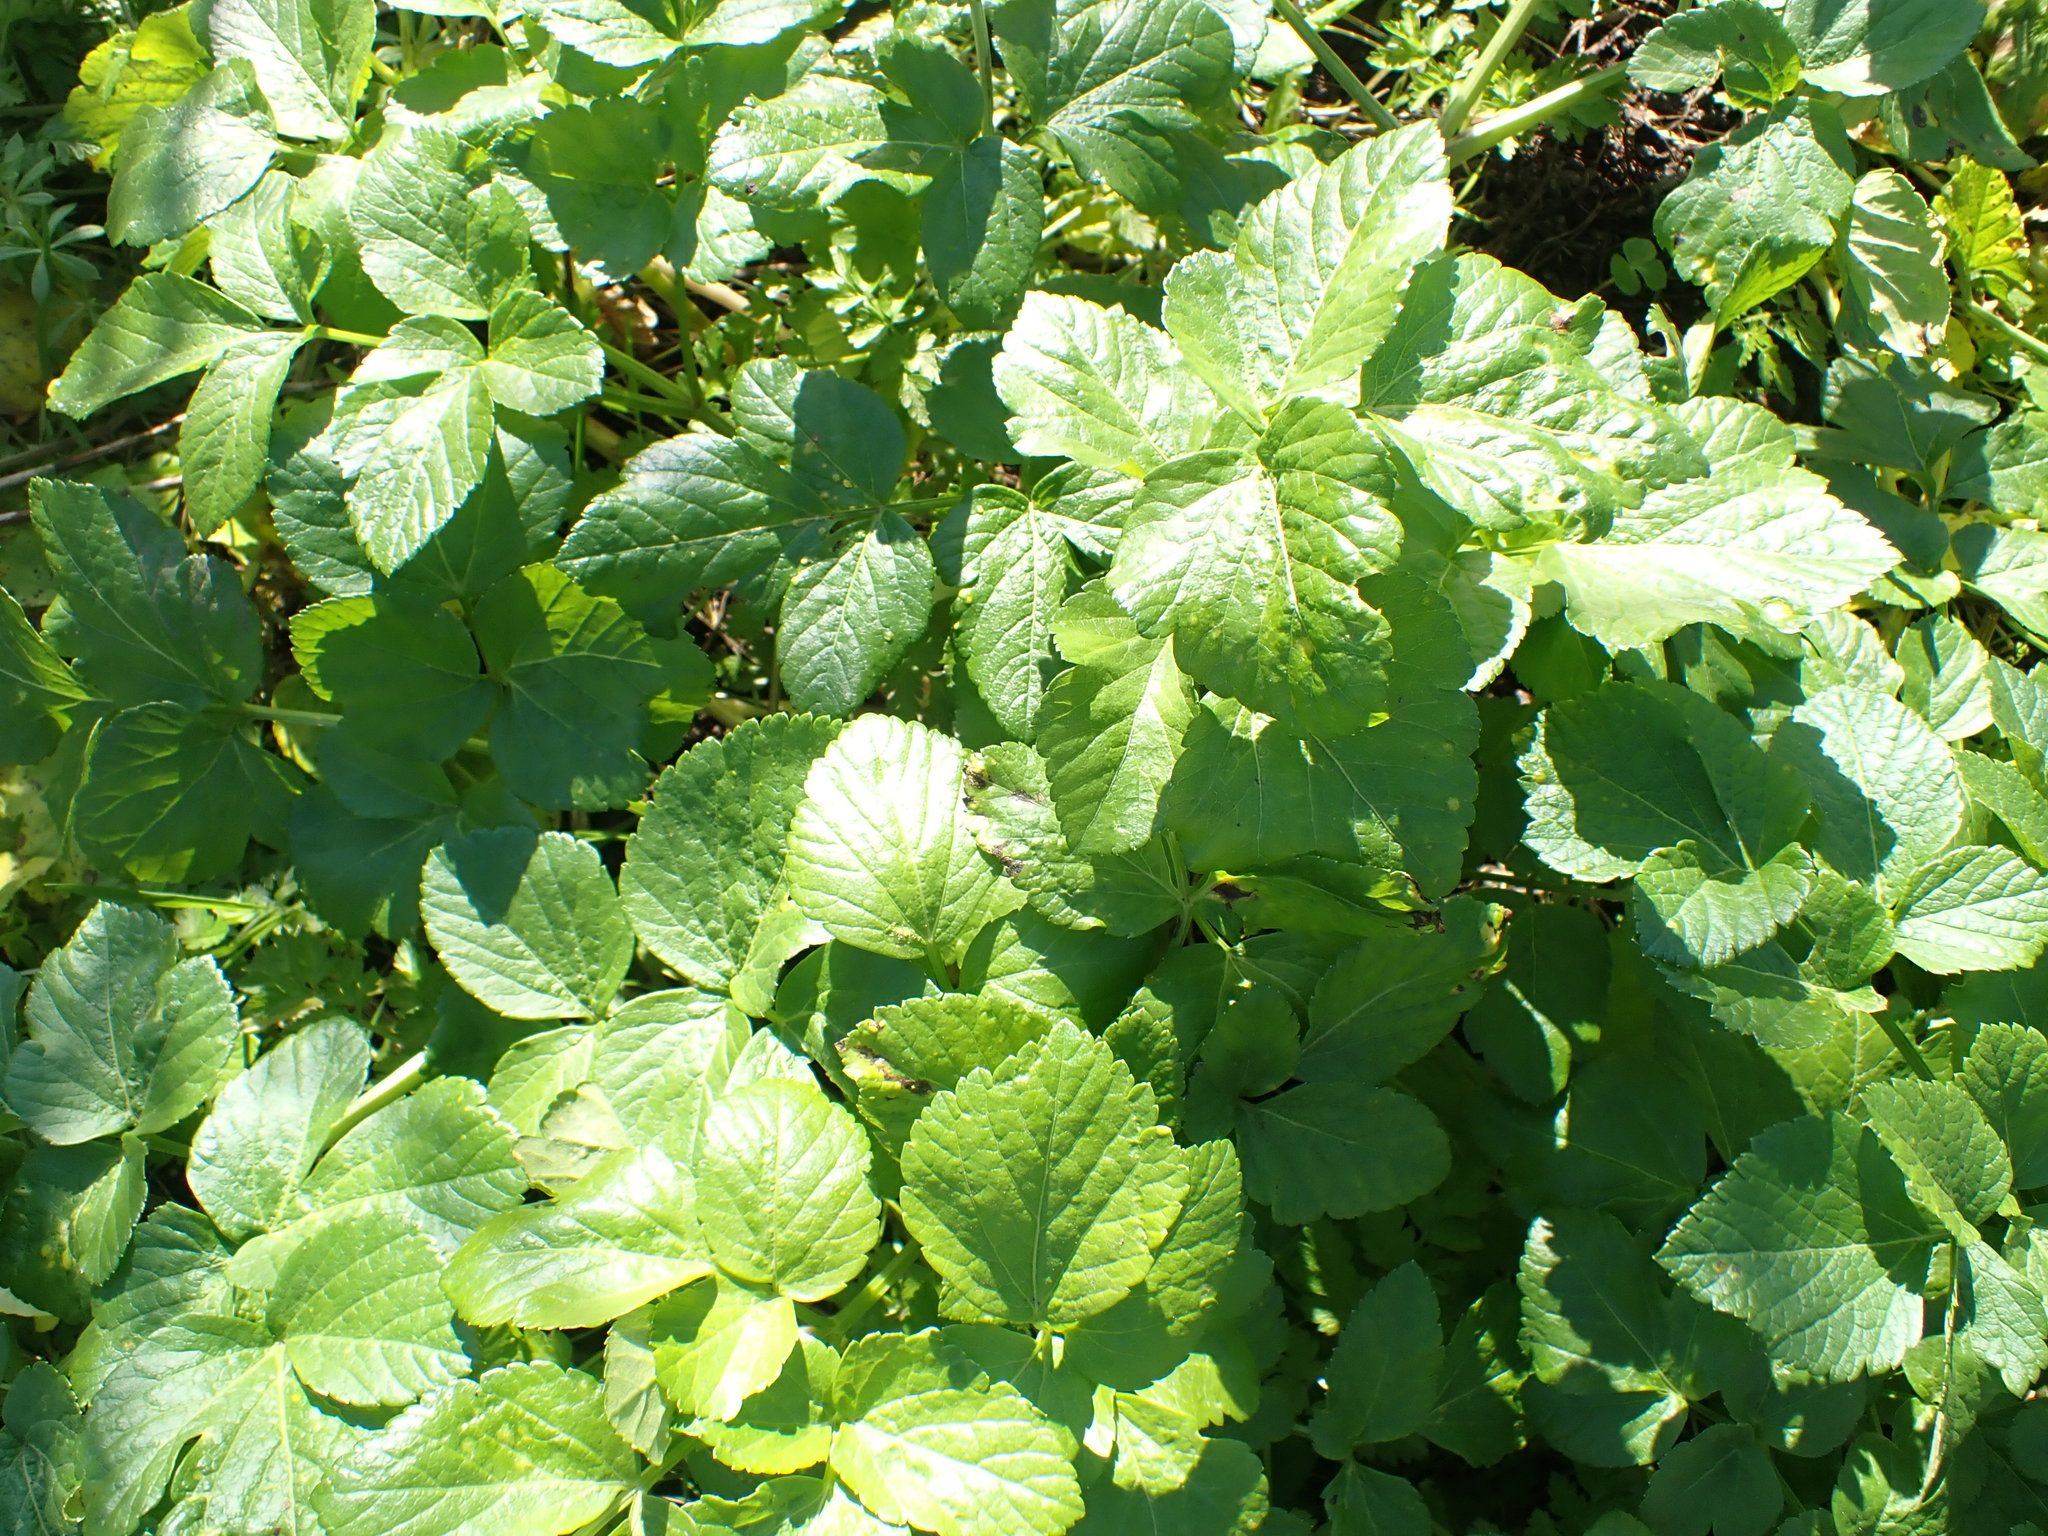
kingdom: Plantae
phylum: Tracheophyta
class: Magnoliopsida
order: Apiales
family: Apiaceae
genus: Smyrnium
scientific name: Smyrnium olusatrum
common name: Alexanders
